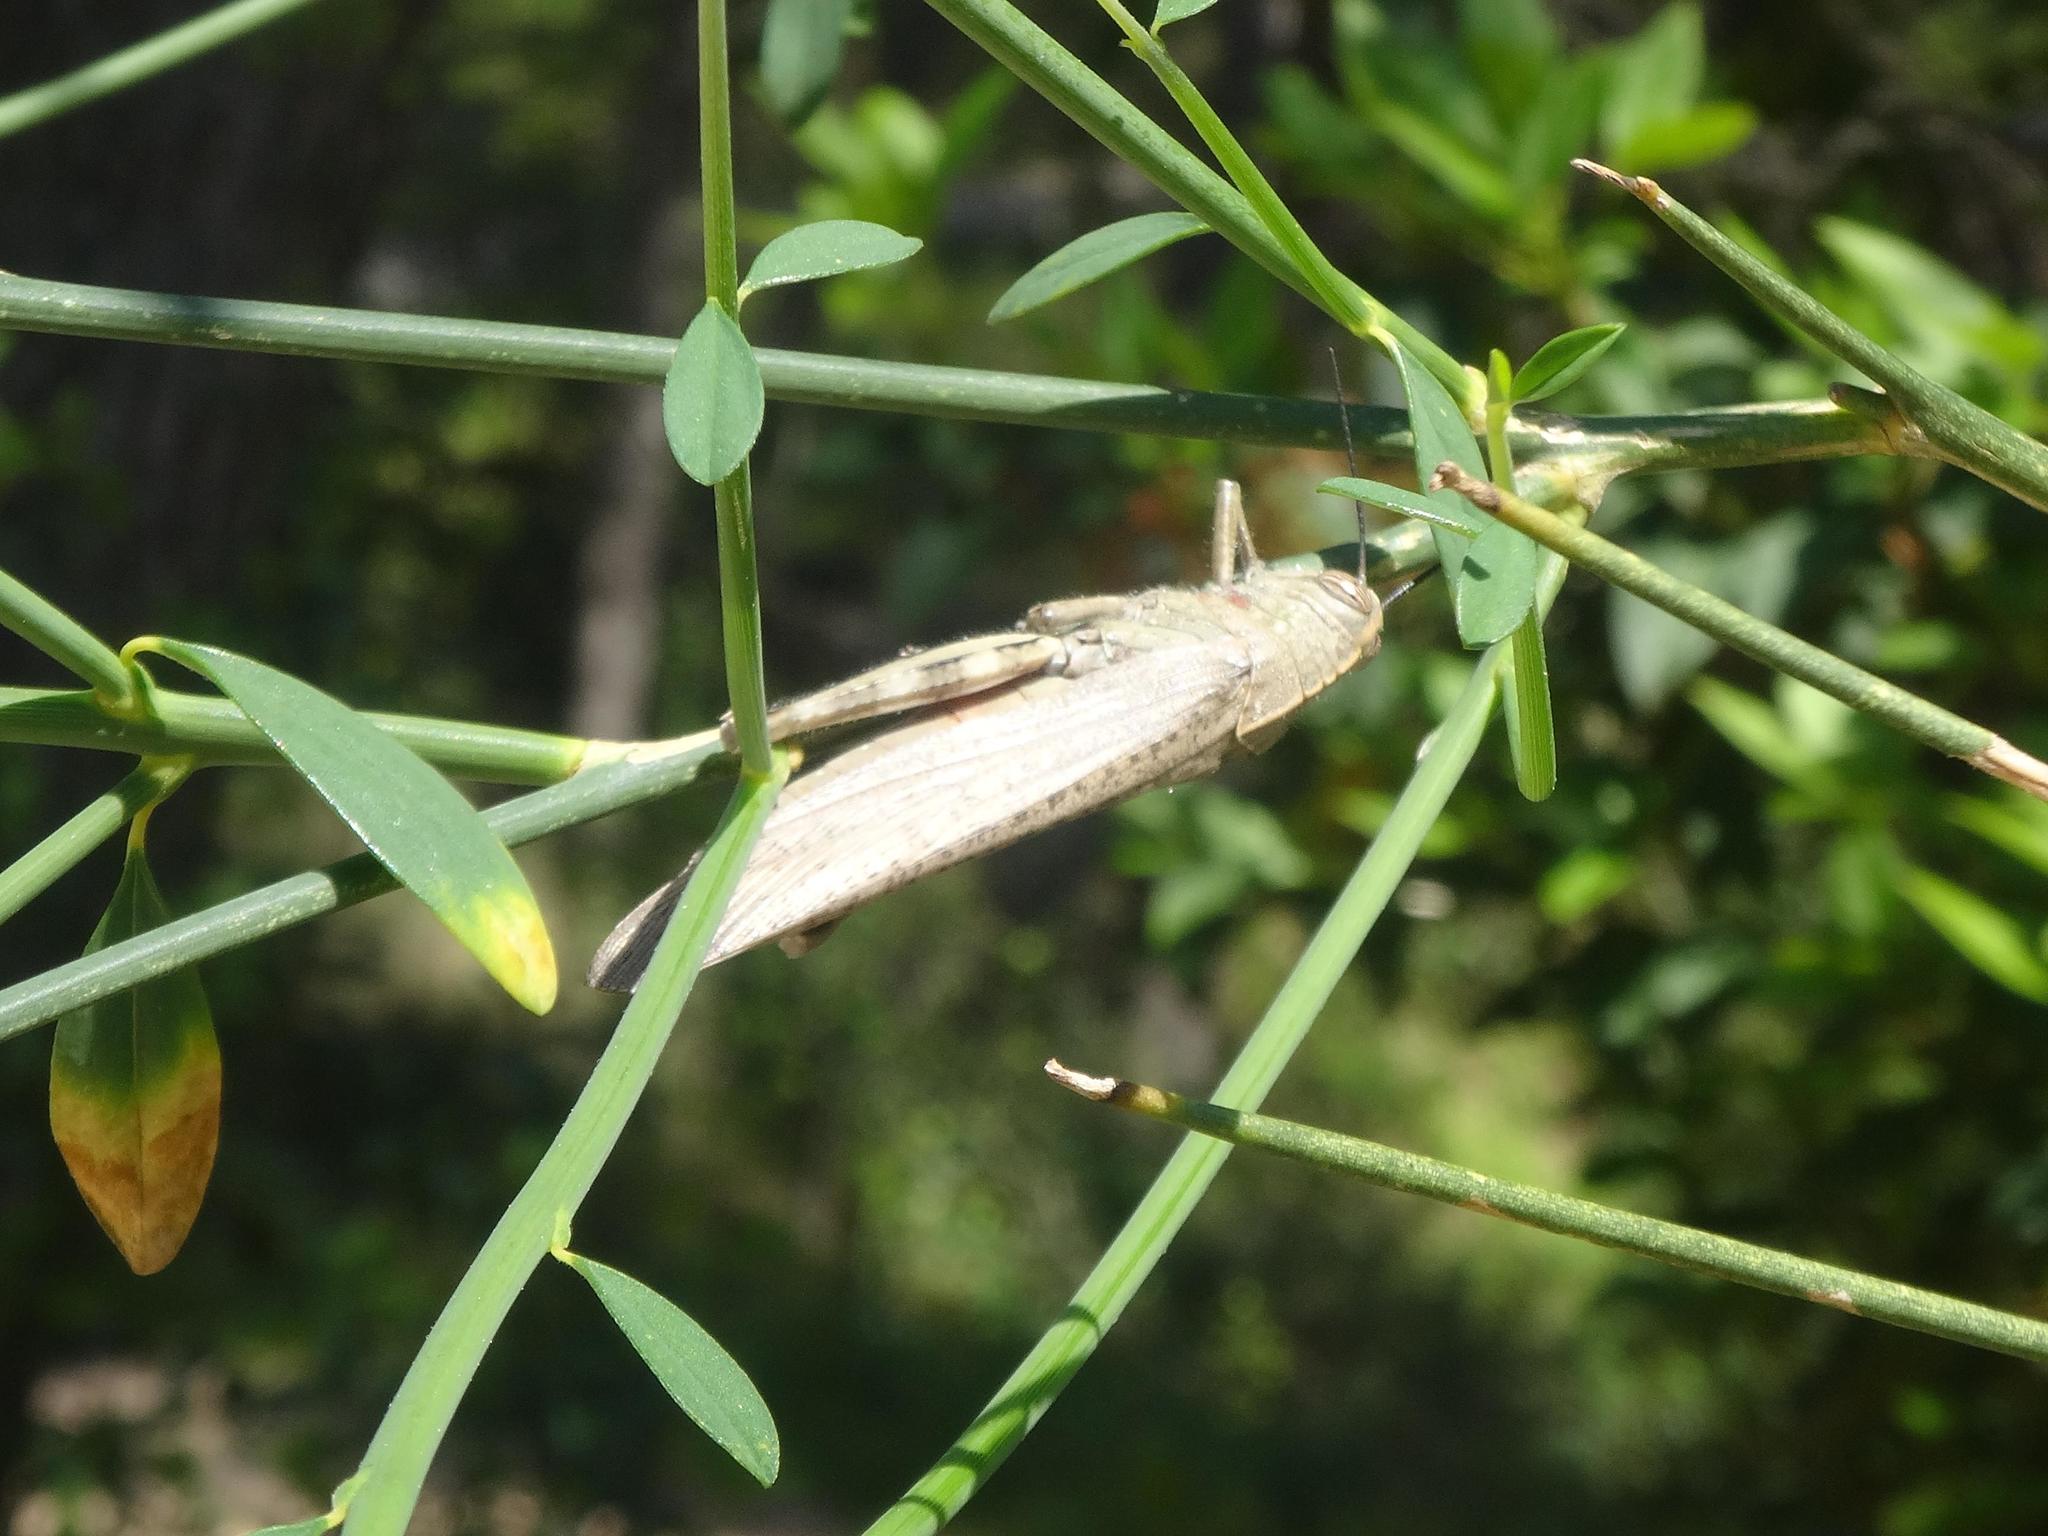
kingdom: Animalia
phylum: Arthropoda
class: Insecta
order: Orthoptera
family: Acrididae
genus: Anacridium
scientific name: Anacridium aegyptium
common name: Egyptian grasshopper
